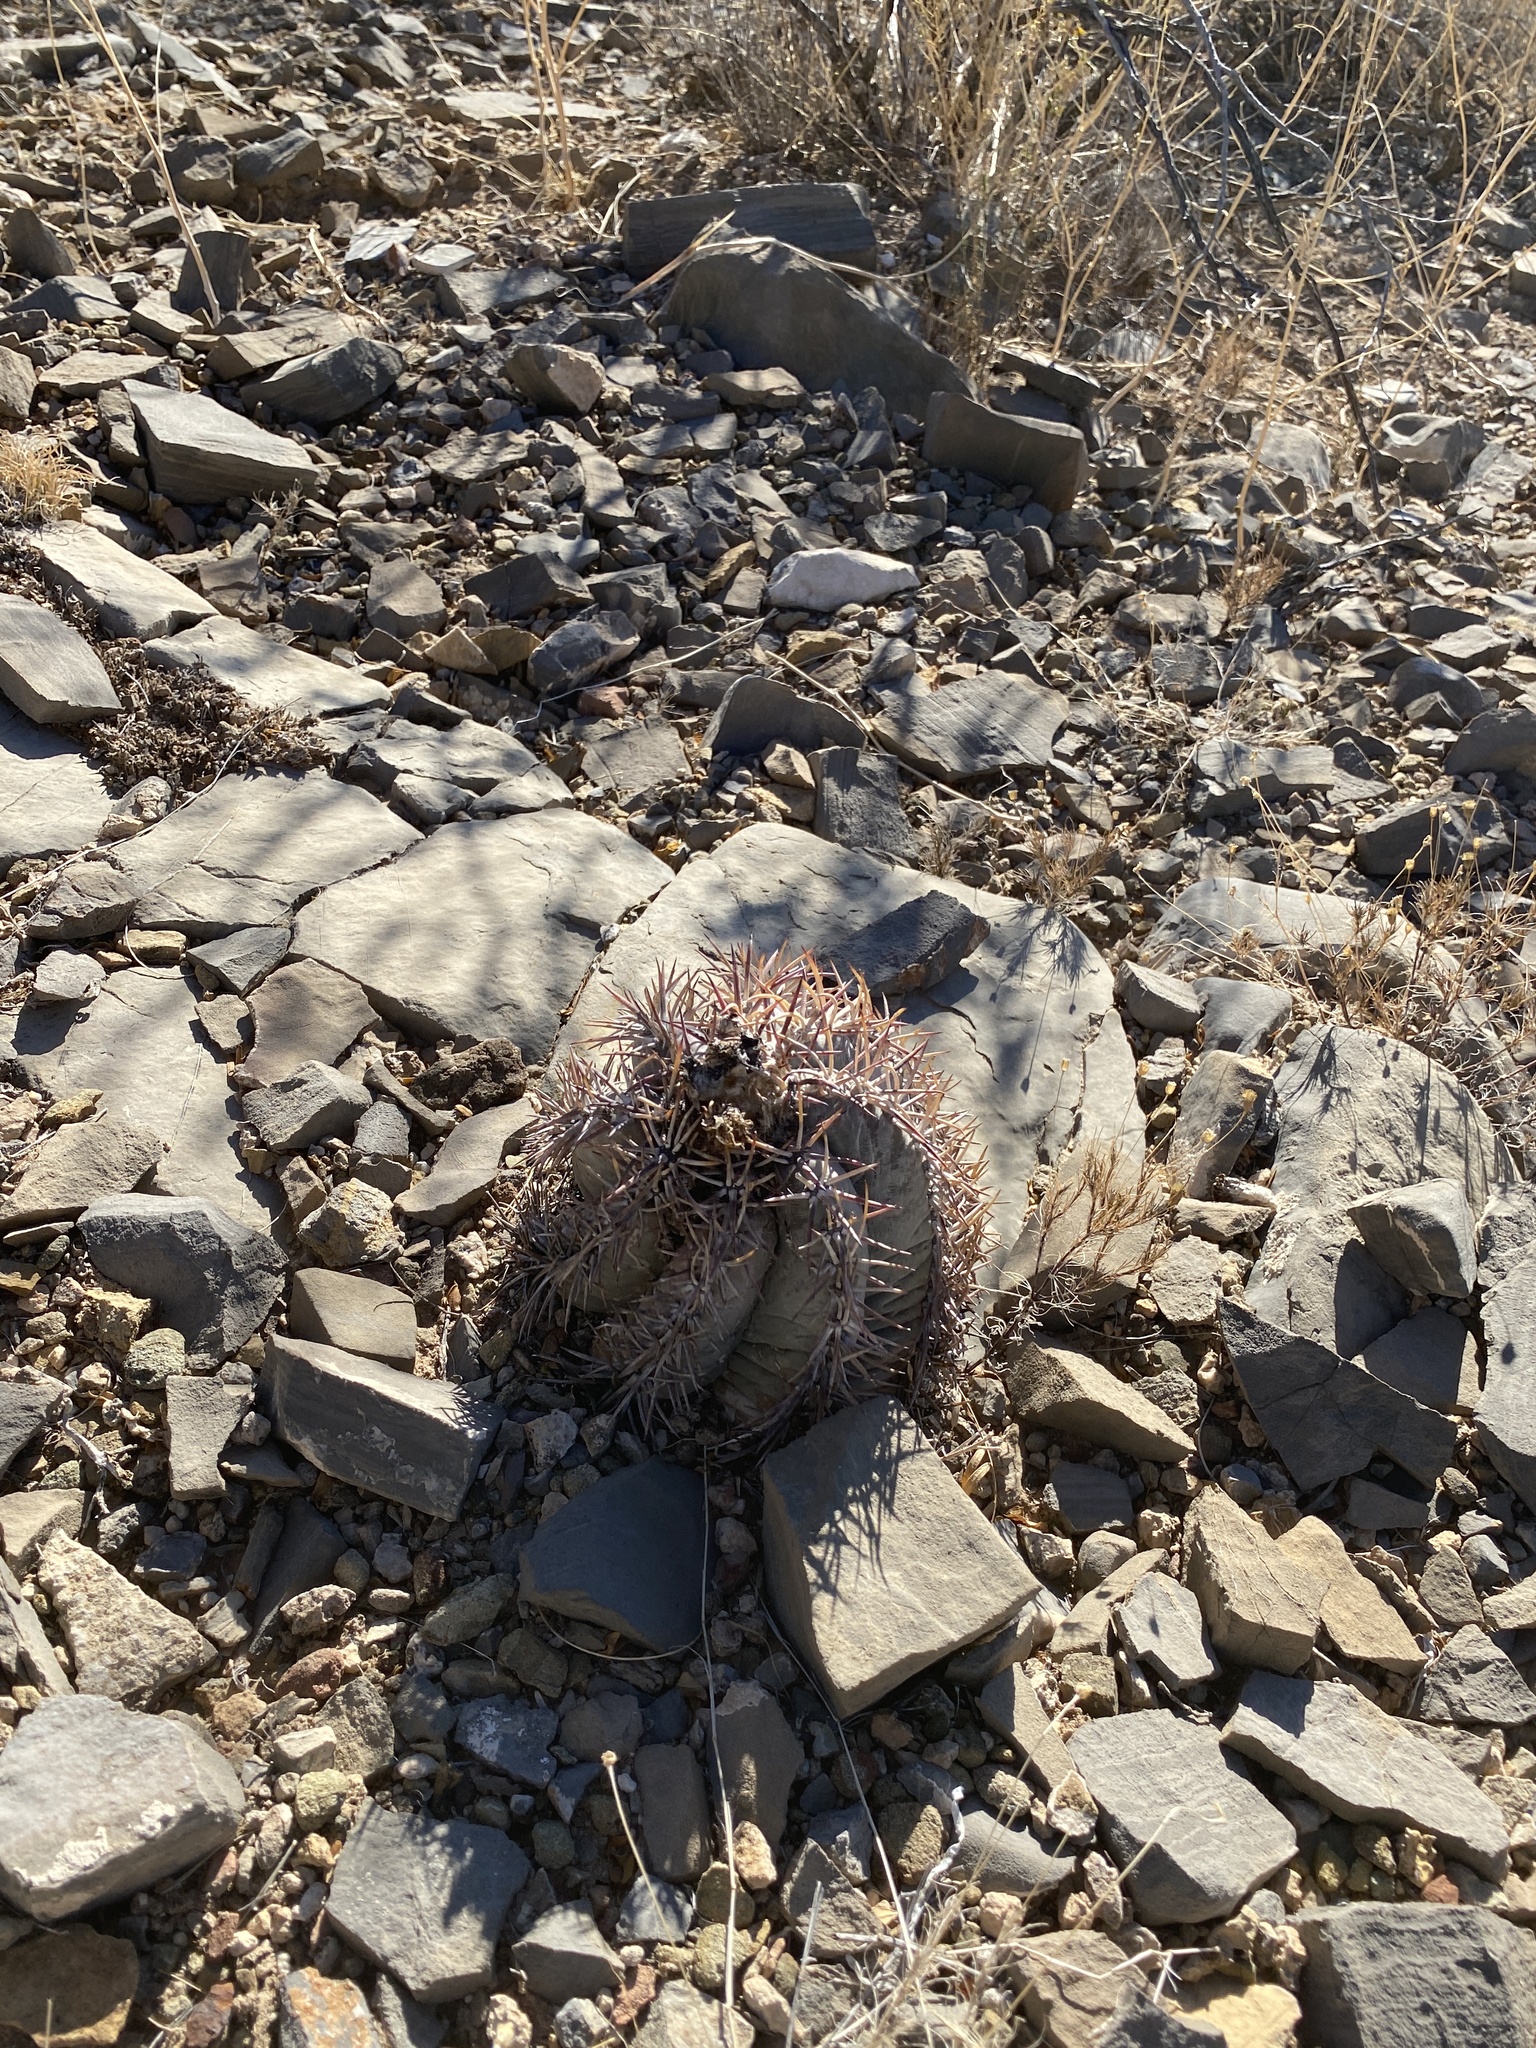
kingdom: Plantae
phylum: Tracheophyta
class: Magnoliopsida
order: Caryophyllales
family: Cactaceae
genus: Echinocactus
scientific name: Echinocactus horizonthalonius
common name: Devilshead
